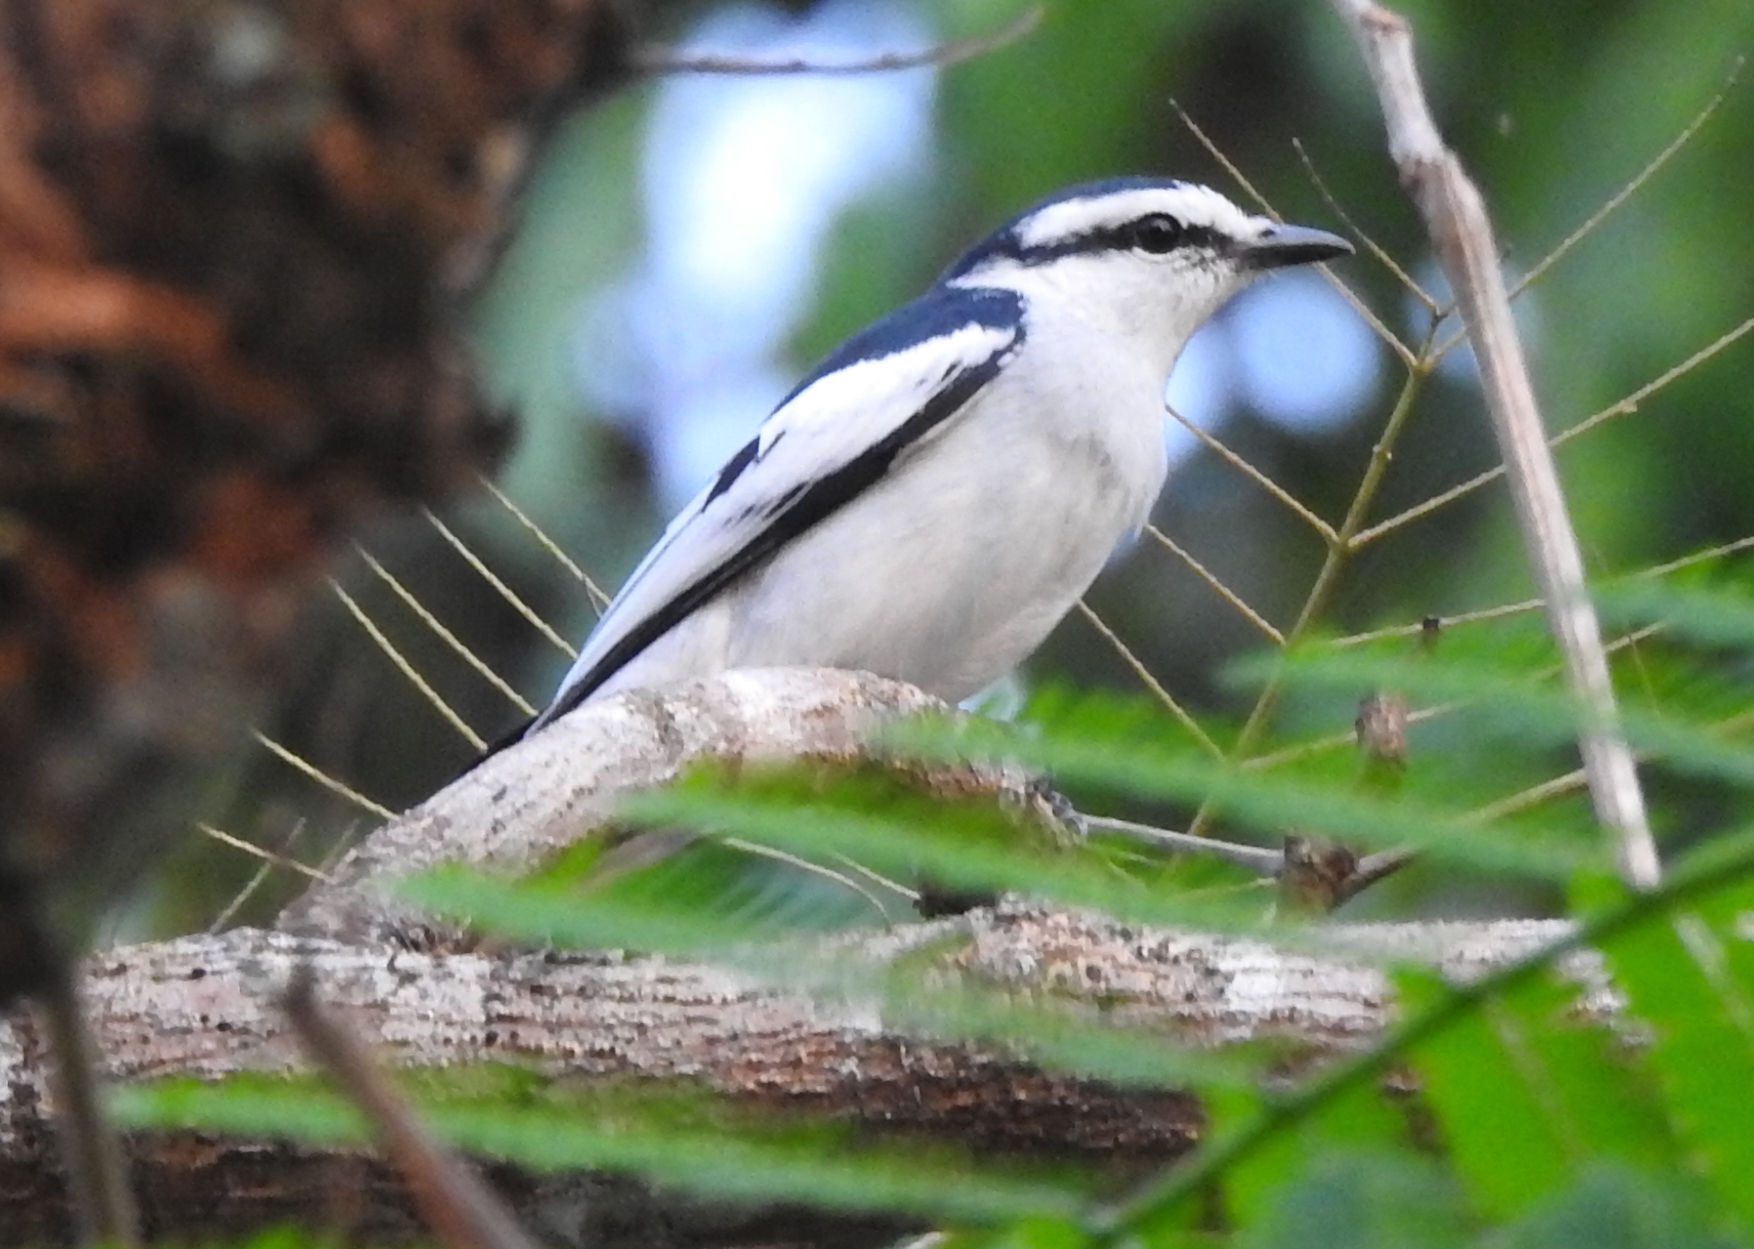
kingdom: Animalia
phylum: Chordata
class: Aves
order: Passeriformes
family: Campephagidae
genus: Lalage
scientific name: Lalage nigra
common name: Pied triller
